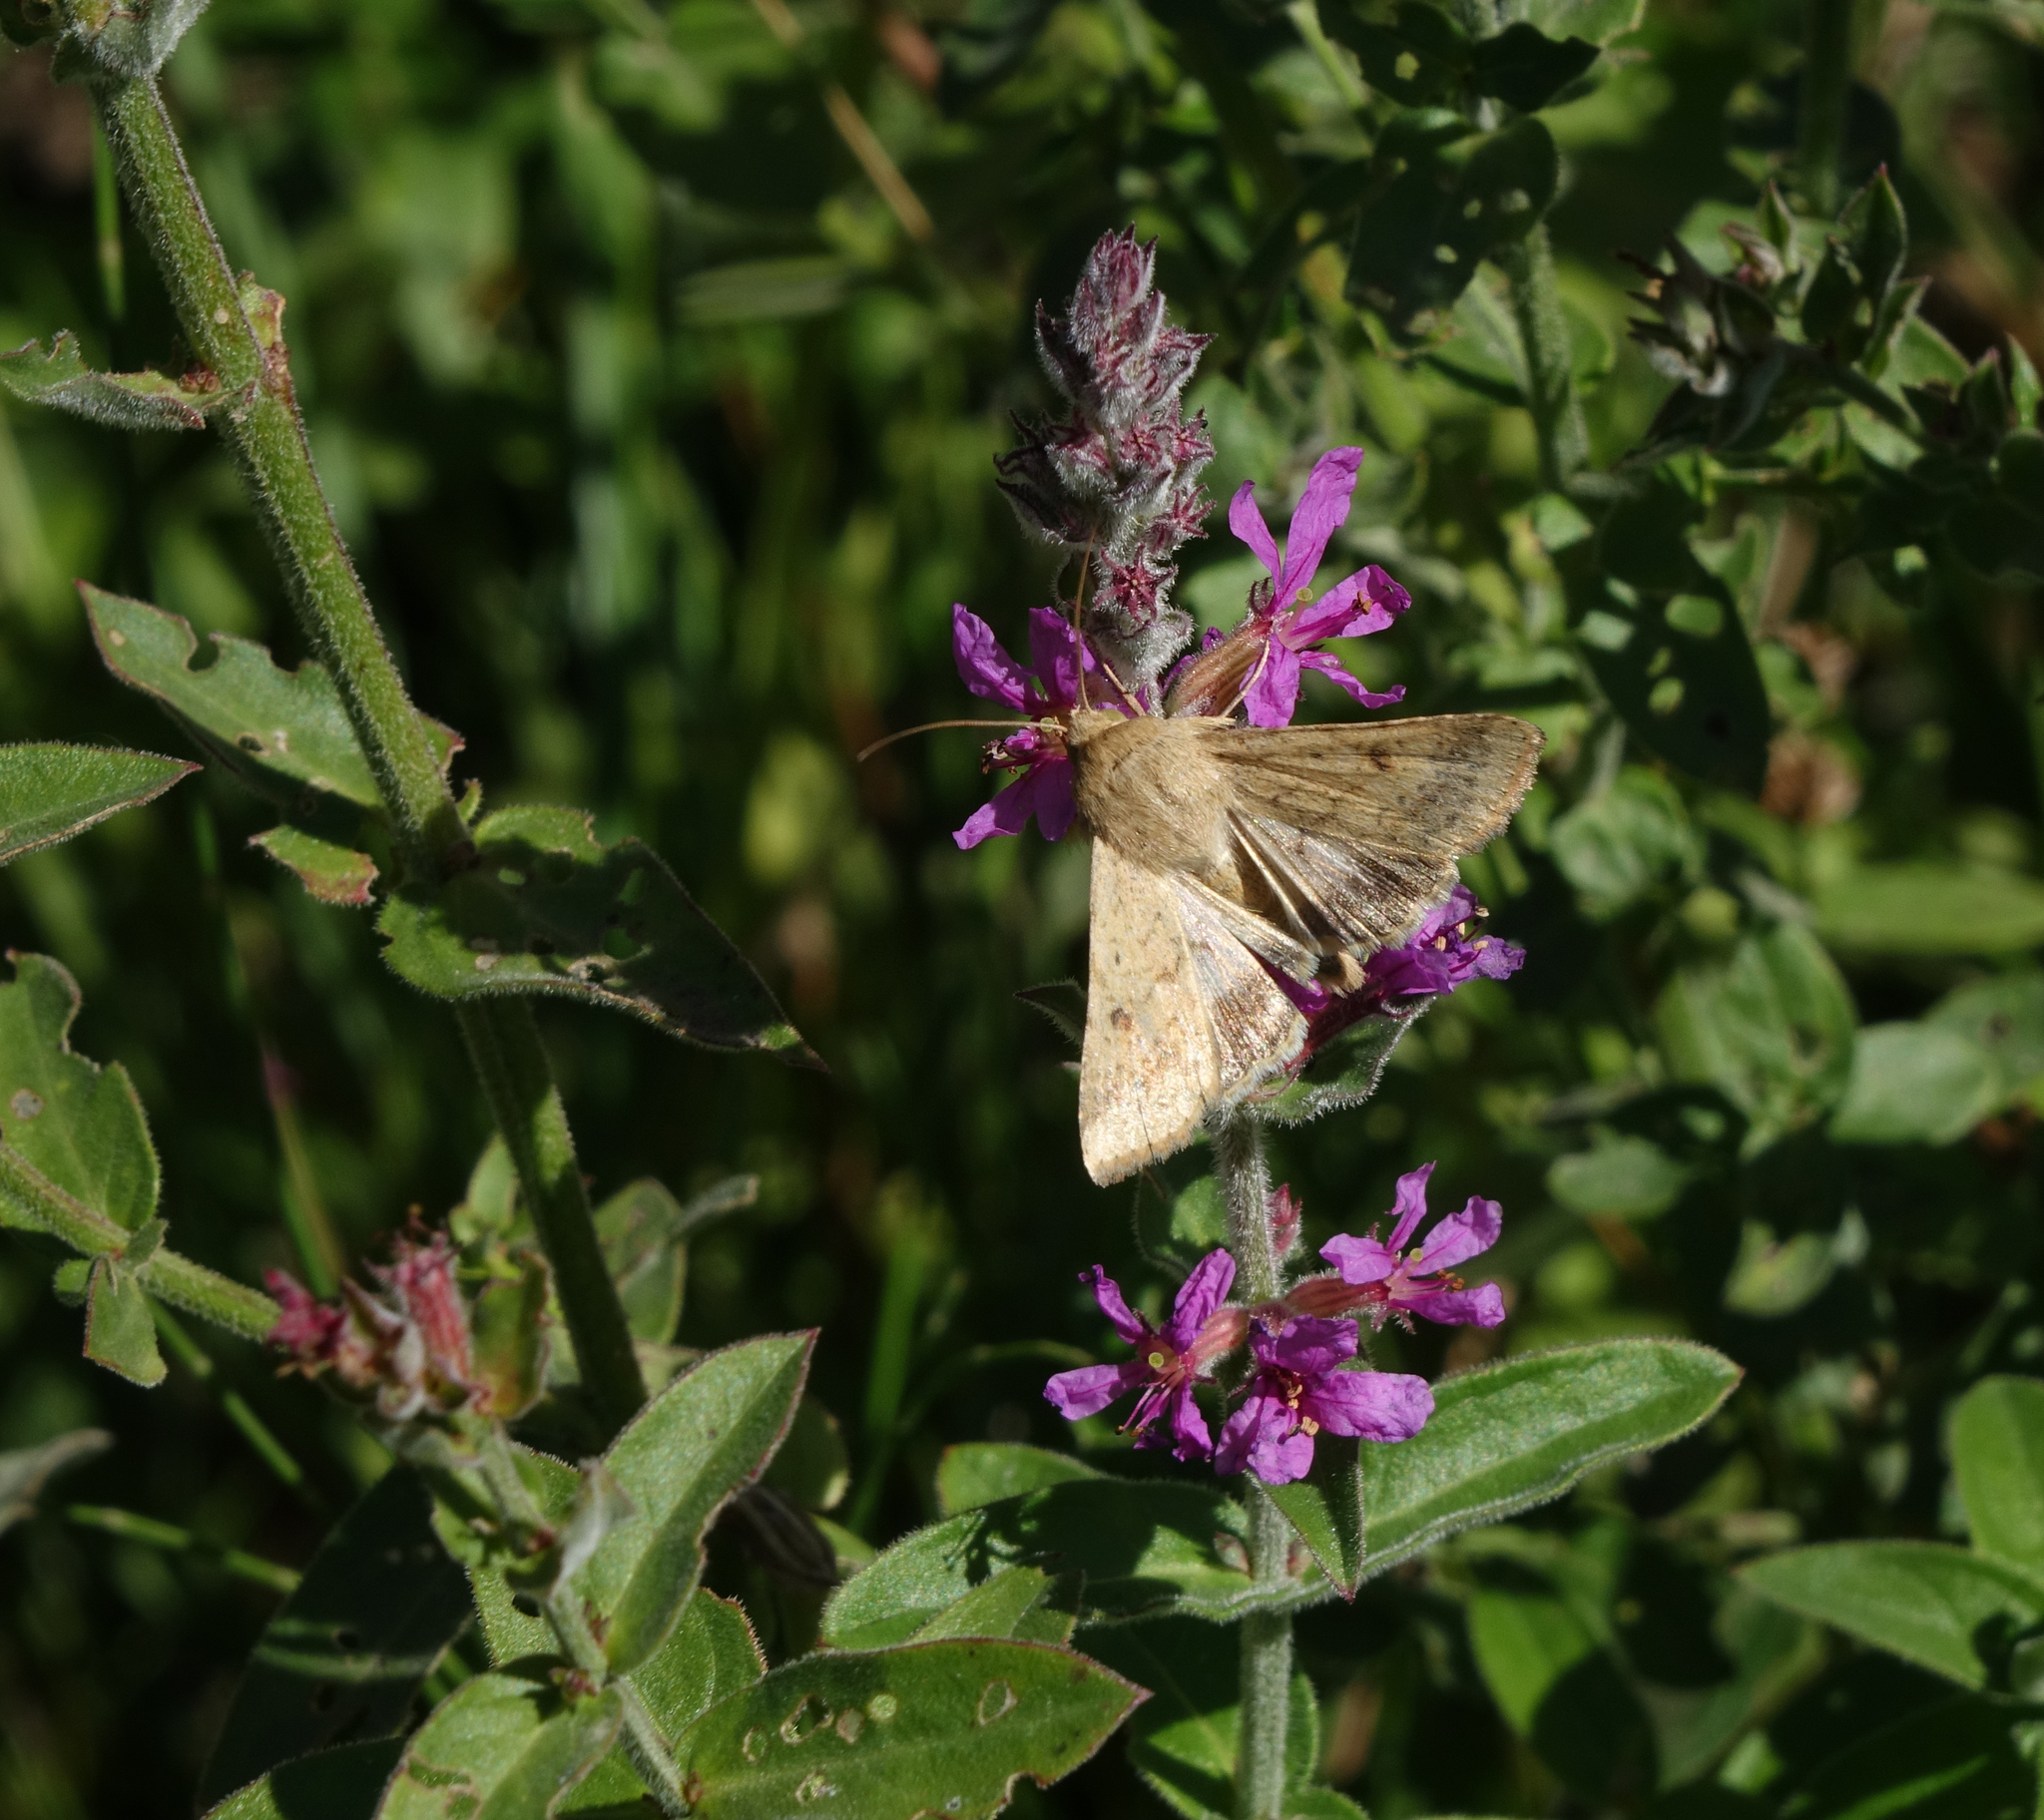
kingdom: Animalia
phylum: Arthropoda
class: Insecta
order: Lepidoptera
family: Noctuidae
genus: Helicoverpa
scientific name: Helicoverpa armigera
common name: Cotton bollworm
